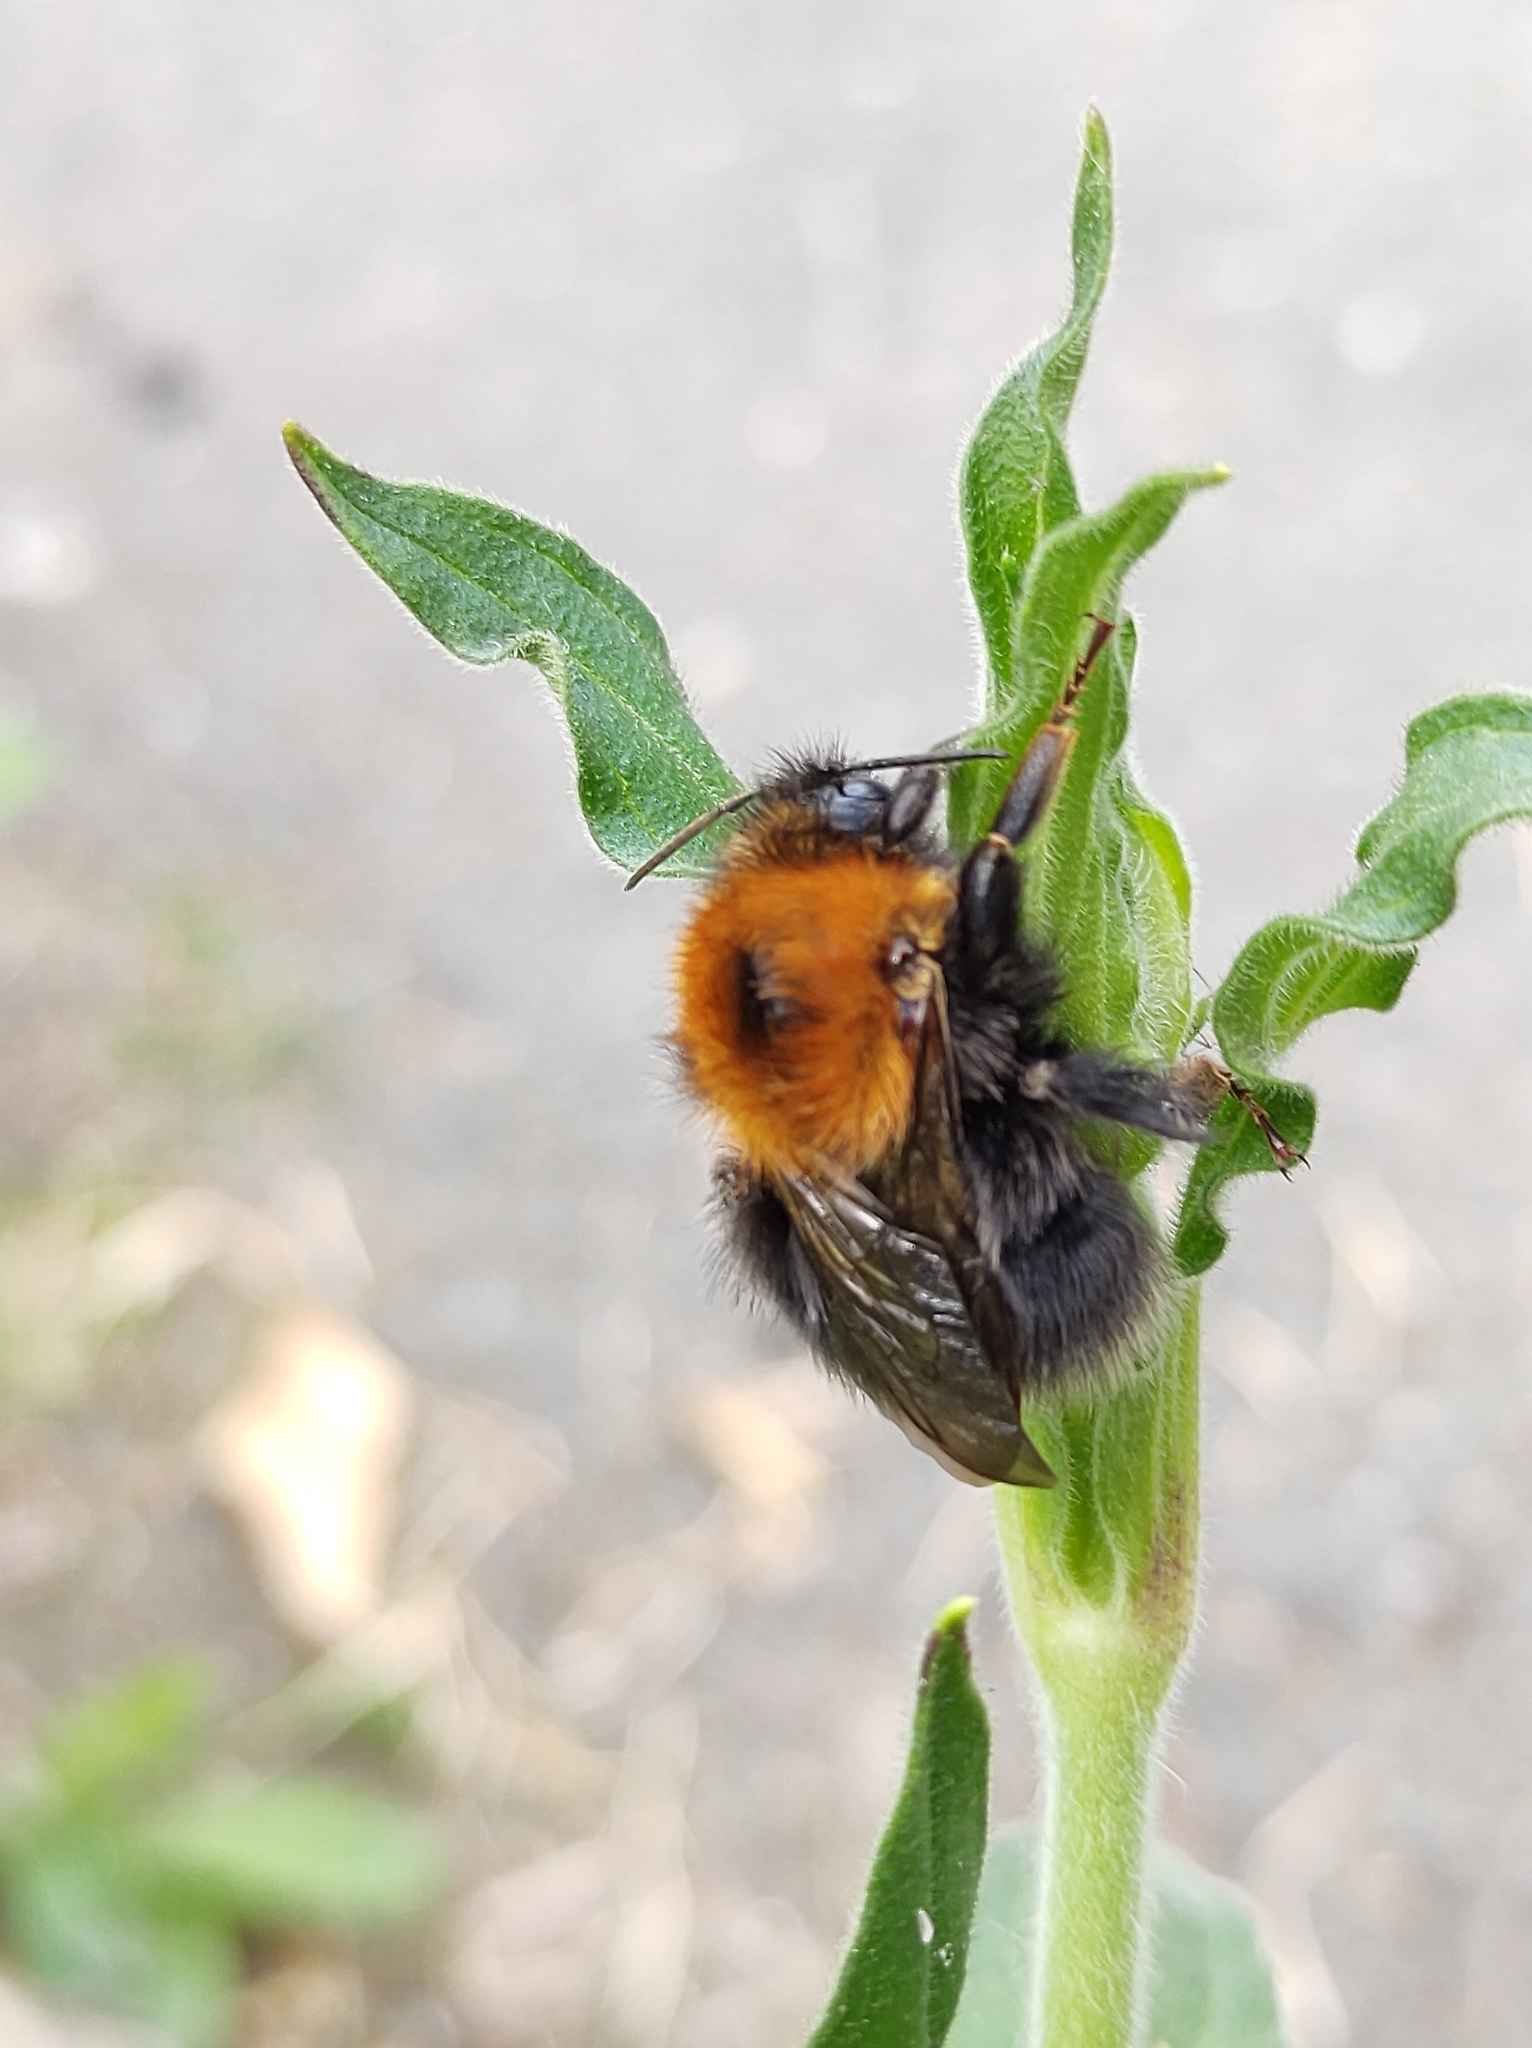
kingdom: Animalia
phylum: Arthropoda
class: Insecta
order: Hymenoptera
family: Apidae
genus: Bombus
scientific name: Bombus hypnorum
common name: New garden bumblebee
